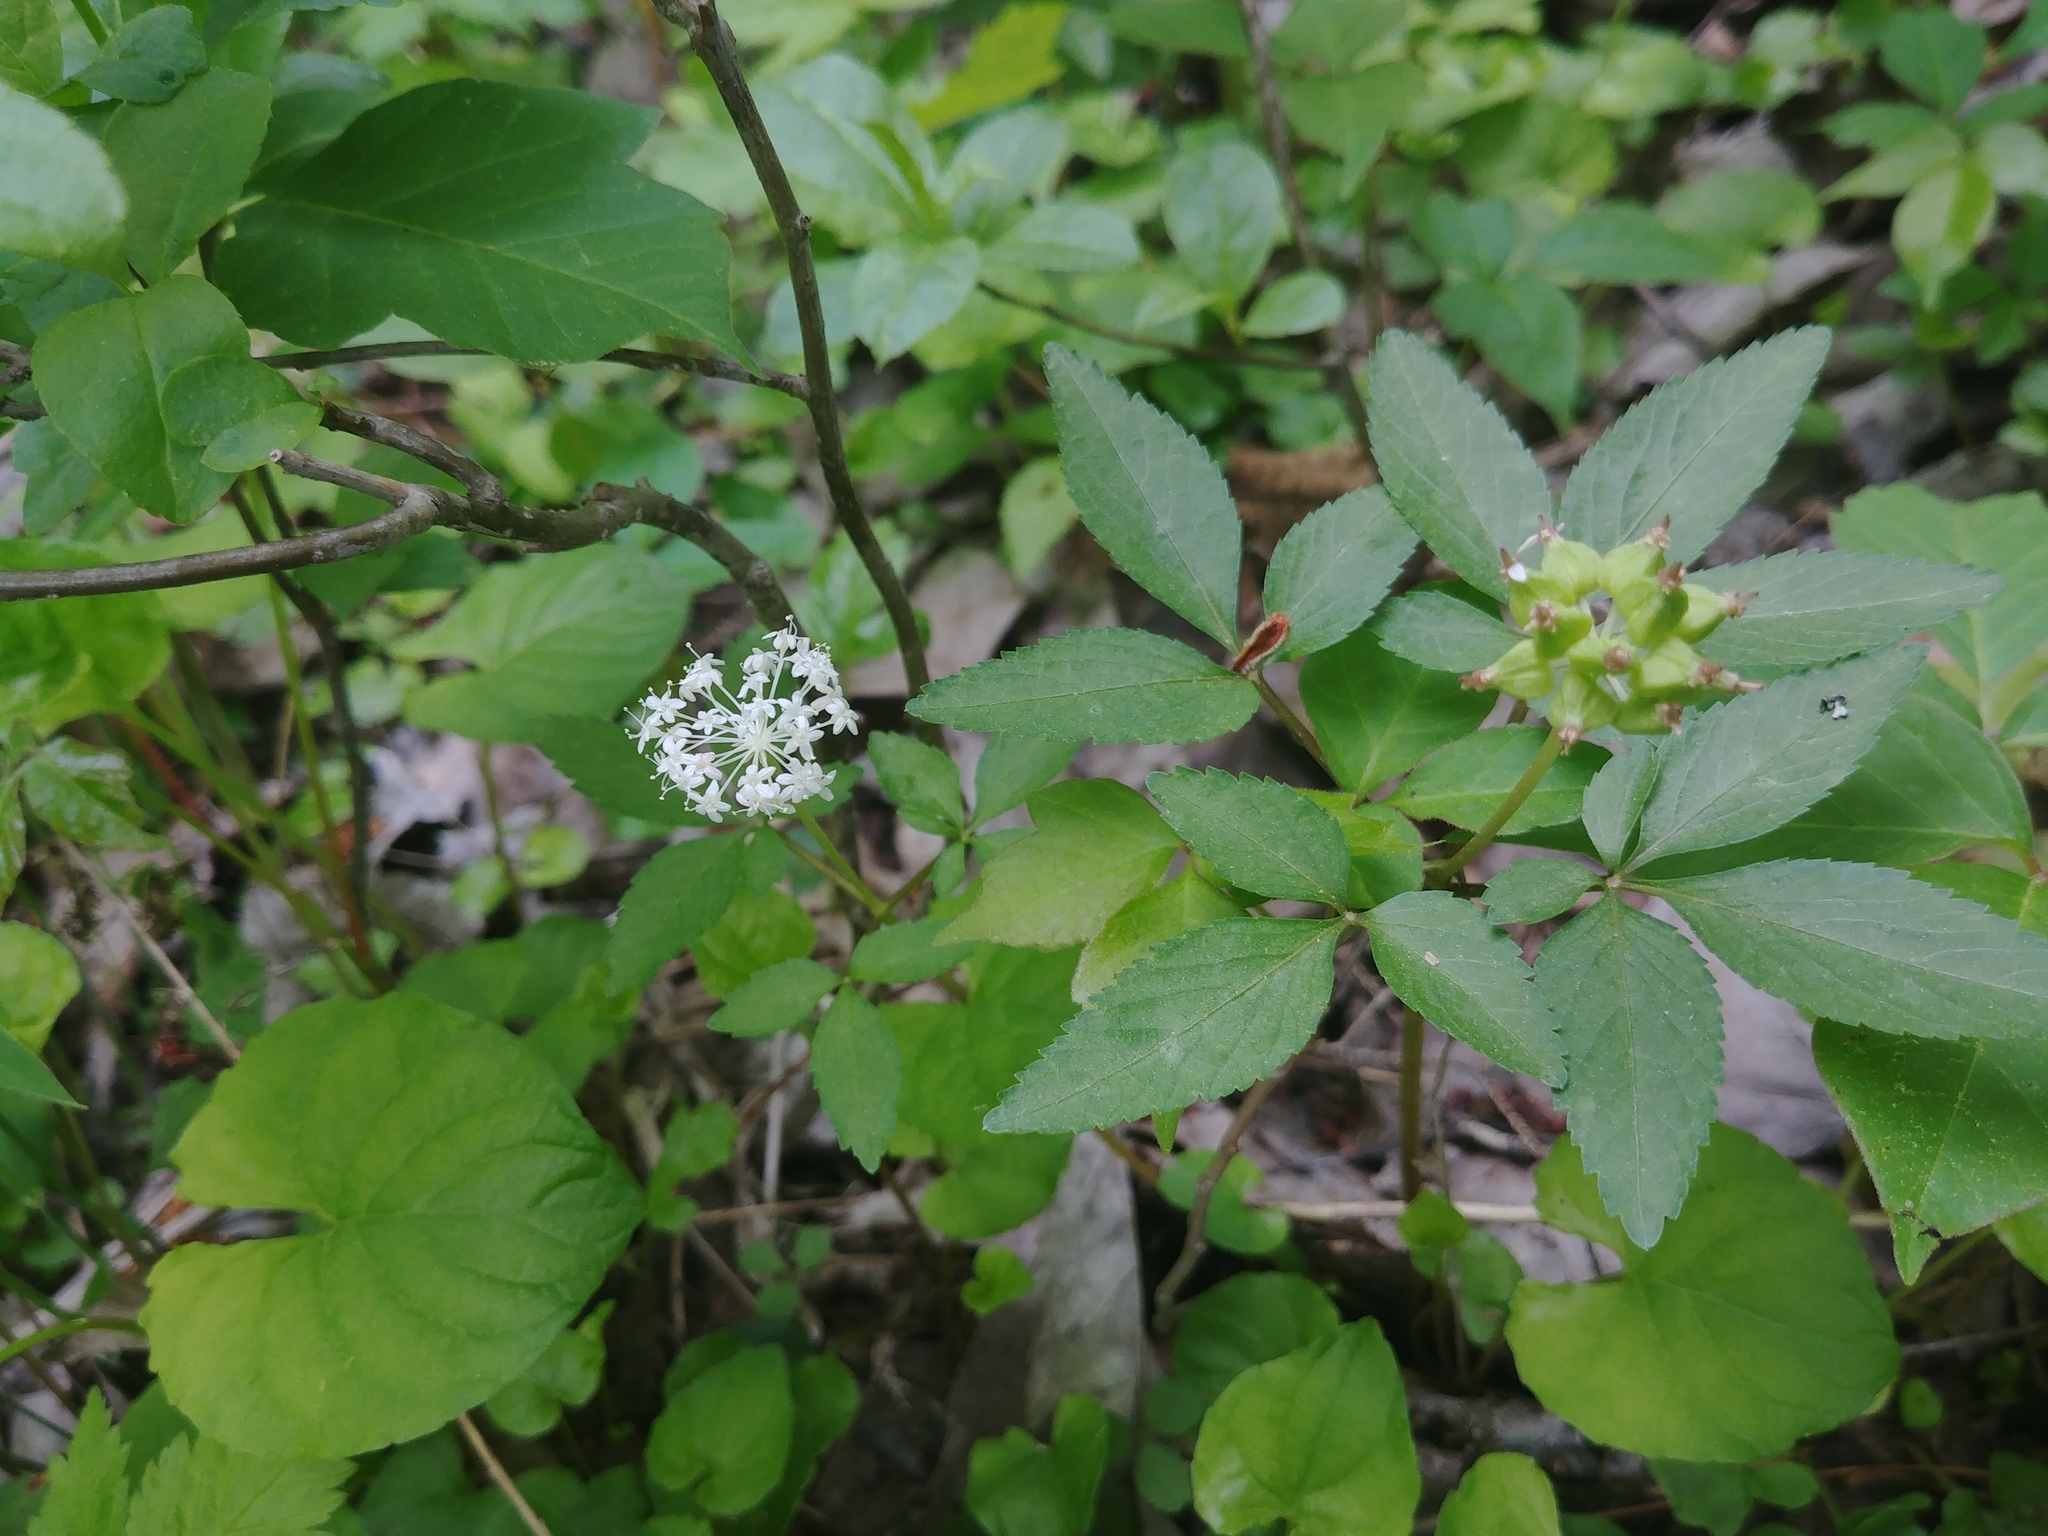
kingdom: Plantae
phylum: Tracheophyta
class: Magnoliopsida
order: Apiales
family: Araliaceae
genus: Panax
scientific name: Panax trifolius
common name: Dwarf ginseng
